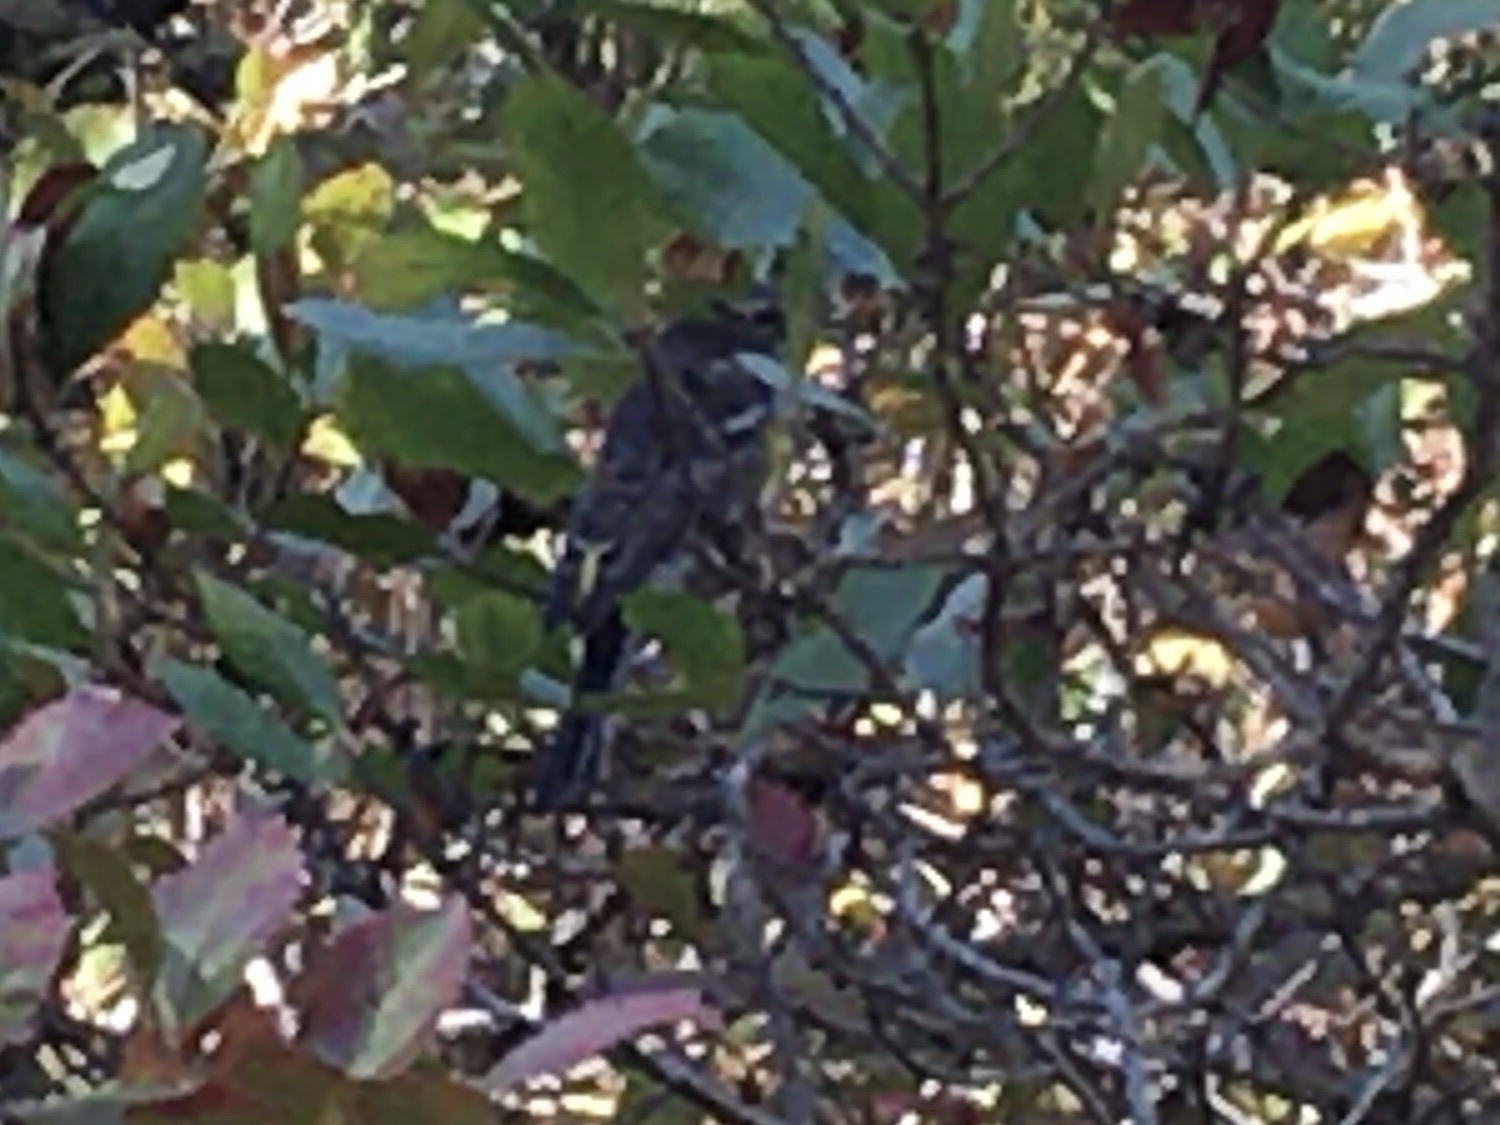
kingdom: Animalia
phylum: Chordata
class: Aves
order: Passeriformes
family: Parulidae
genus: Setophaga
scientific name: Setophaga coronata
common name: Myrtle warbler
